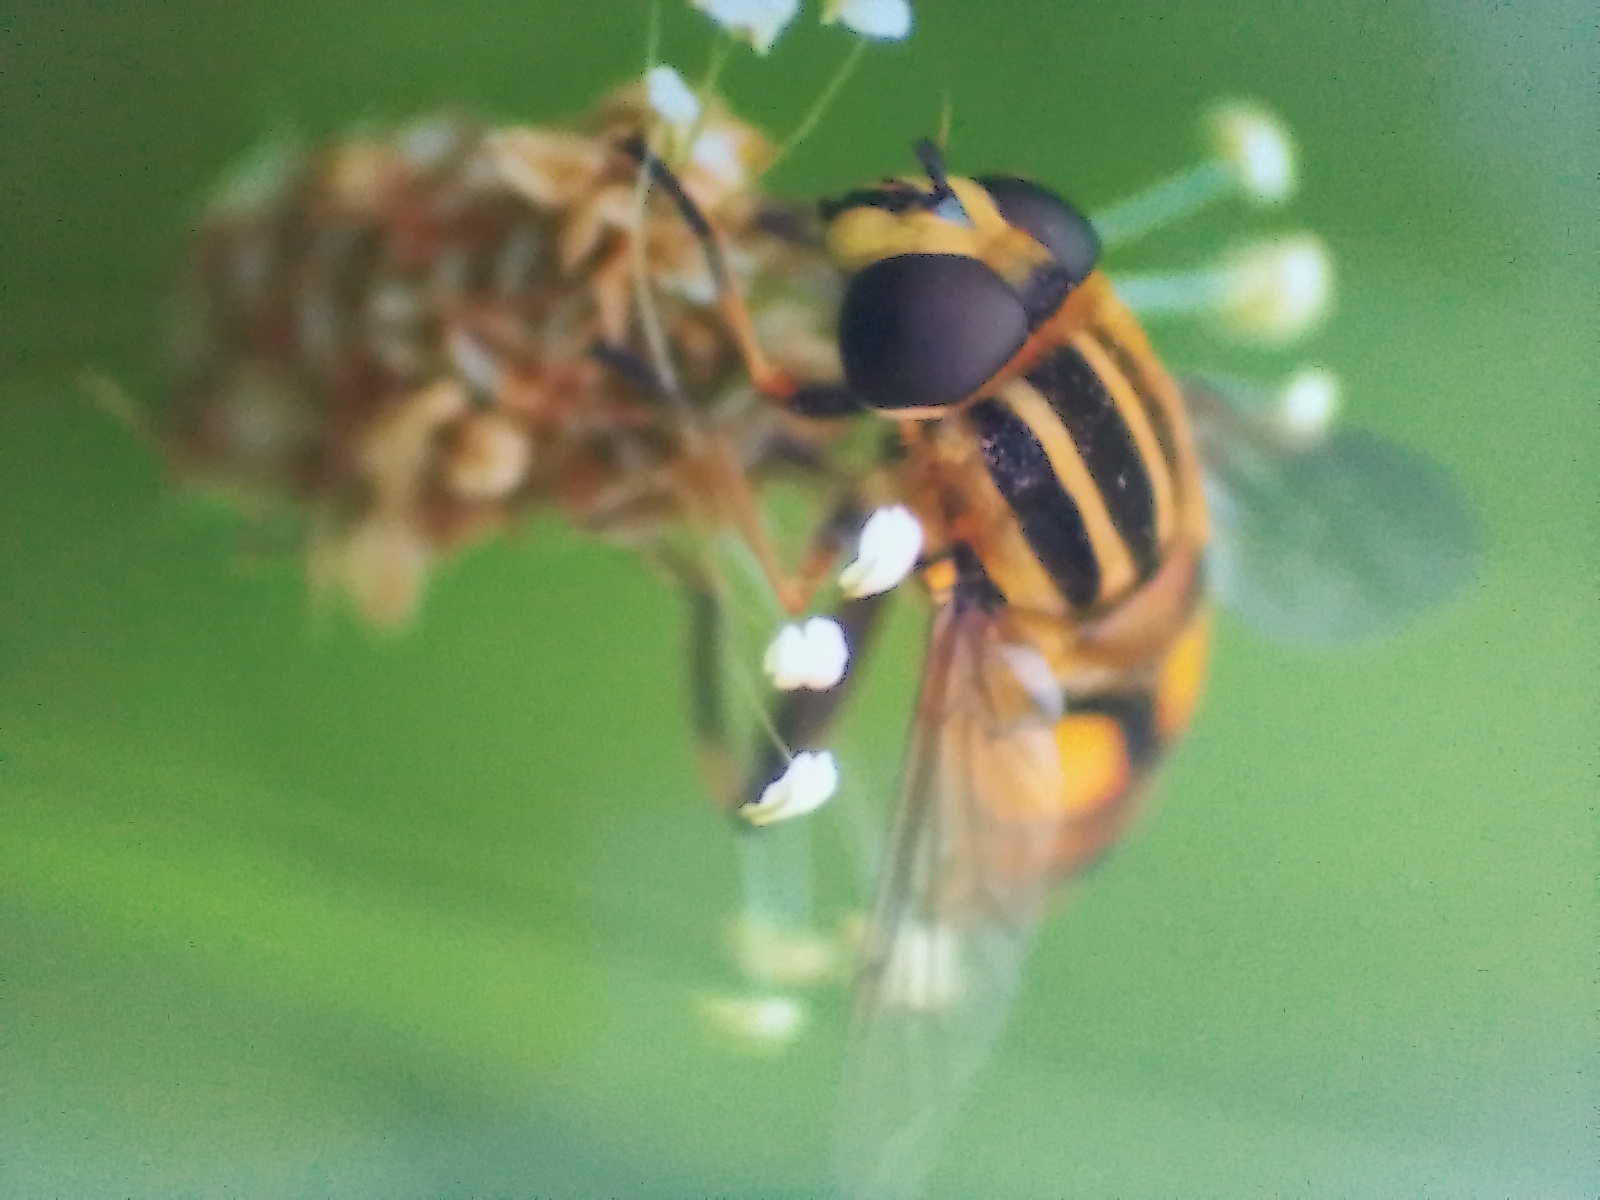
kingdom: Animalia
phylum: Arthropoda
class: Insecta
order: Diptera
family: Syrphidae
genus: Helophilus
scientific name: Helophilus hybridus
